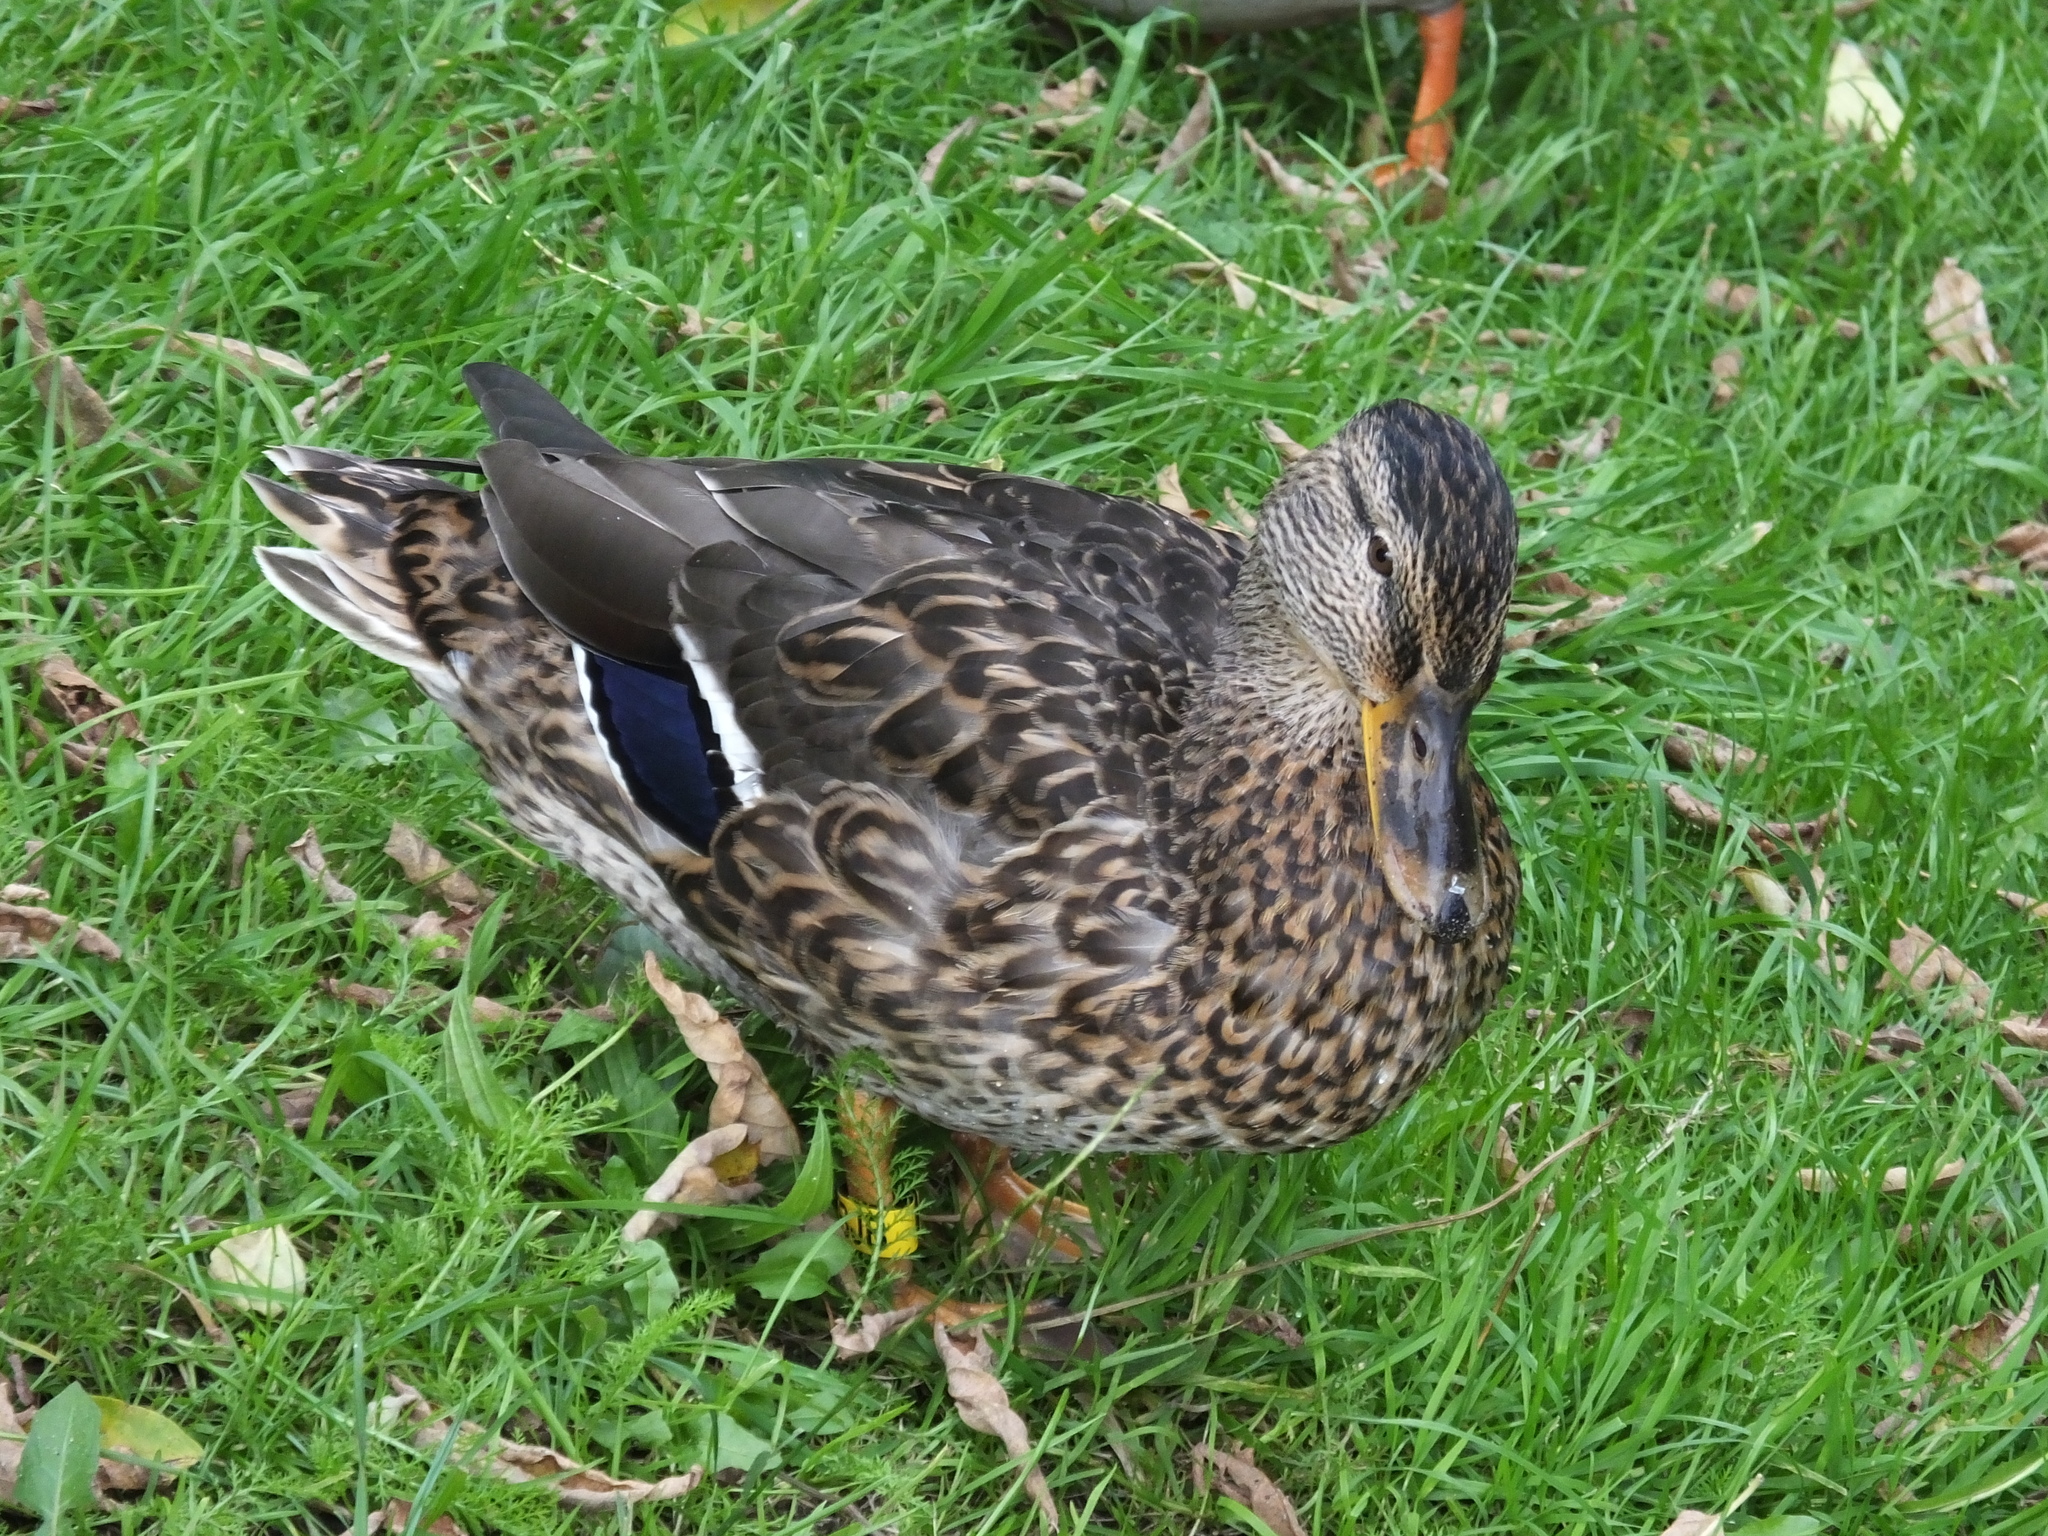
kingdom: Animalia
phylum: Chordata
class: Aves
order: Anseriformes
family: Anatidae
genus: Anas
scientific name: Anas platyrhynchos
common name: Mallard
